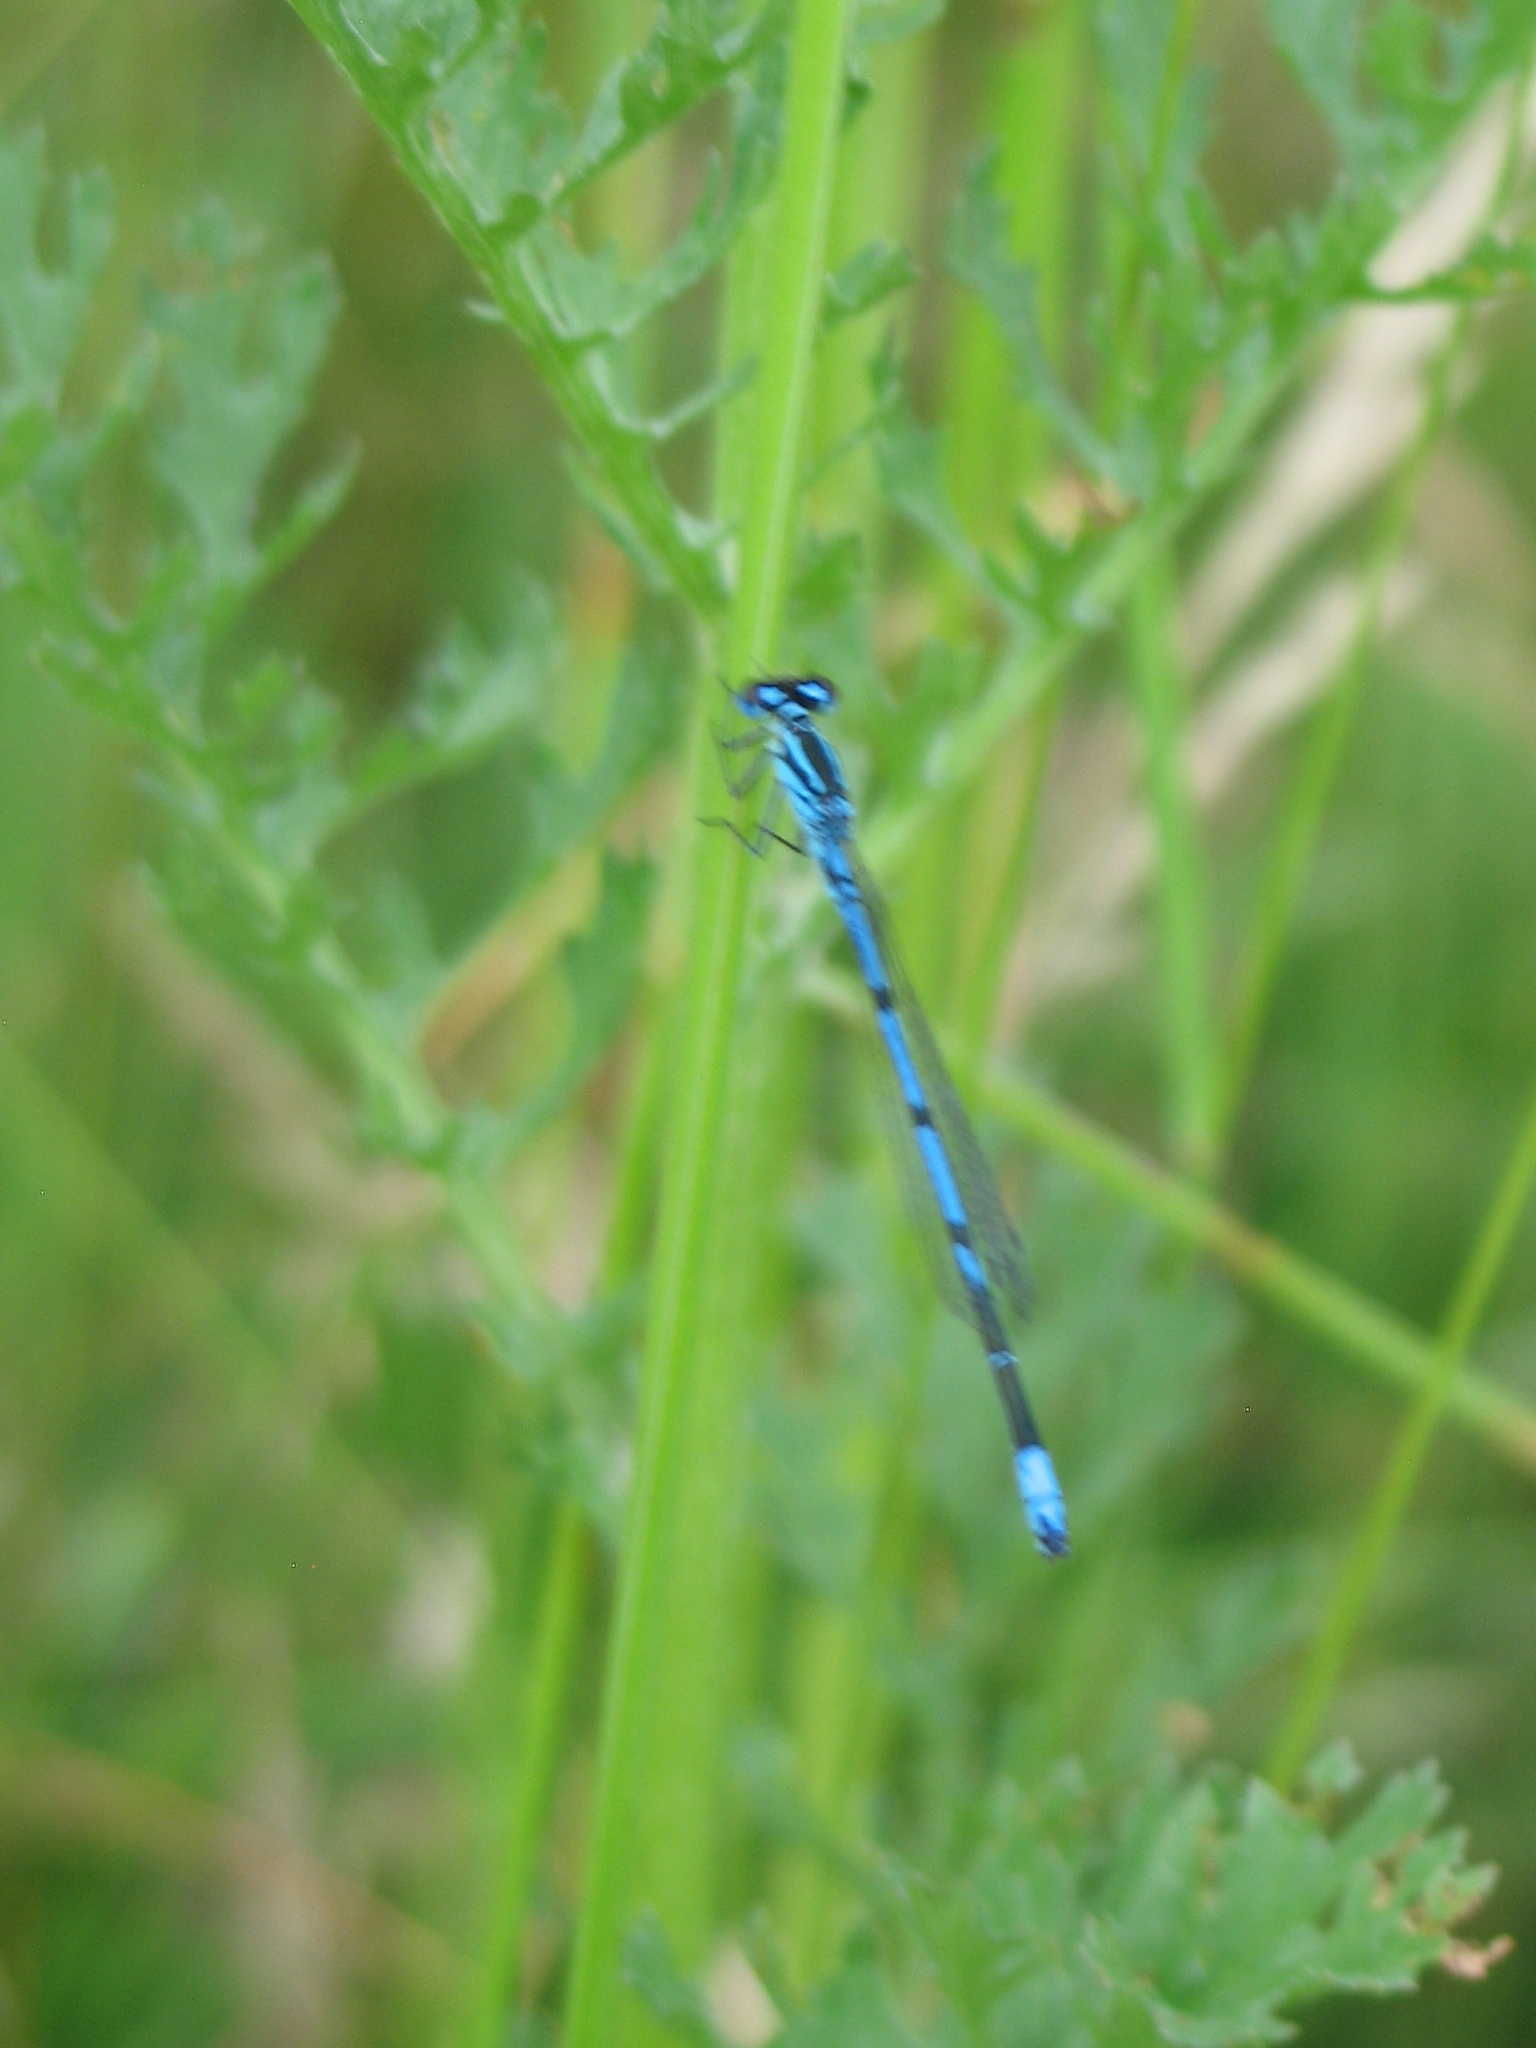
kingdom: Animalia
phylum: Arthropoda
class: Insecta
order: Odonata
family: Coenagrionidae
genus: Coenagrion
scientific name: Coenagrion puella
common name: Azure damselfly
